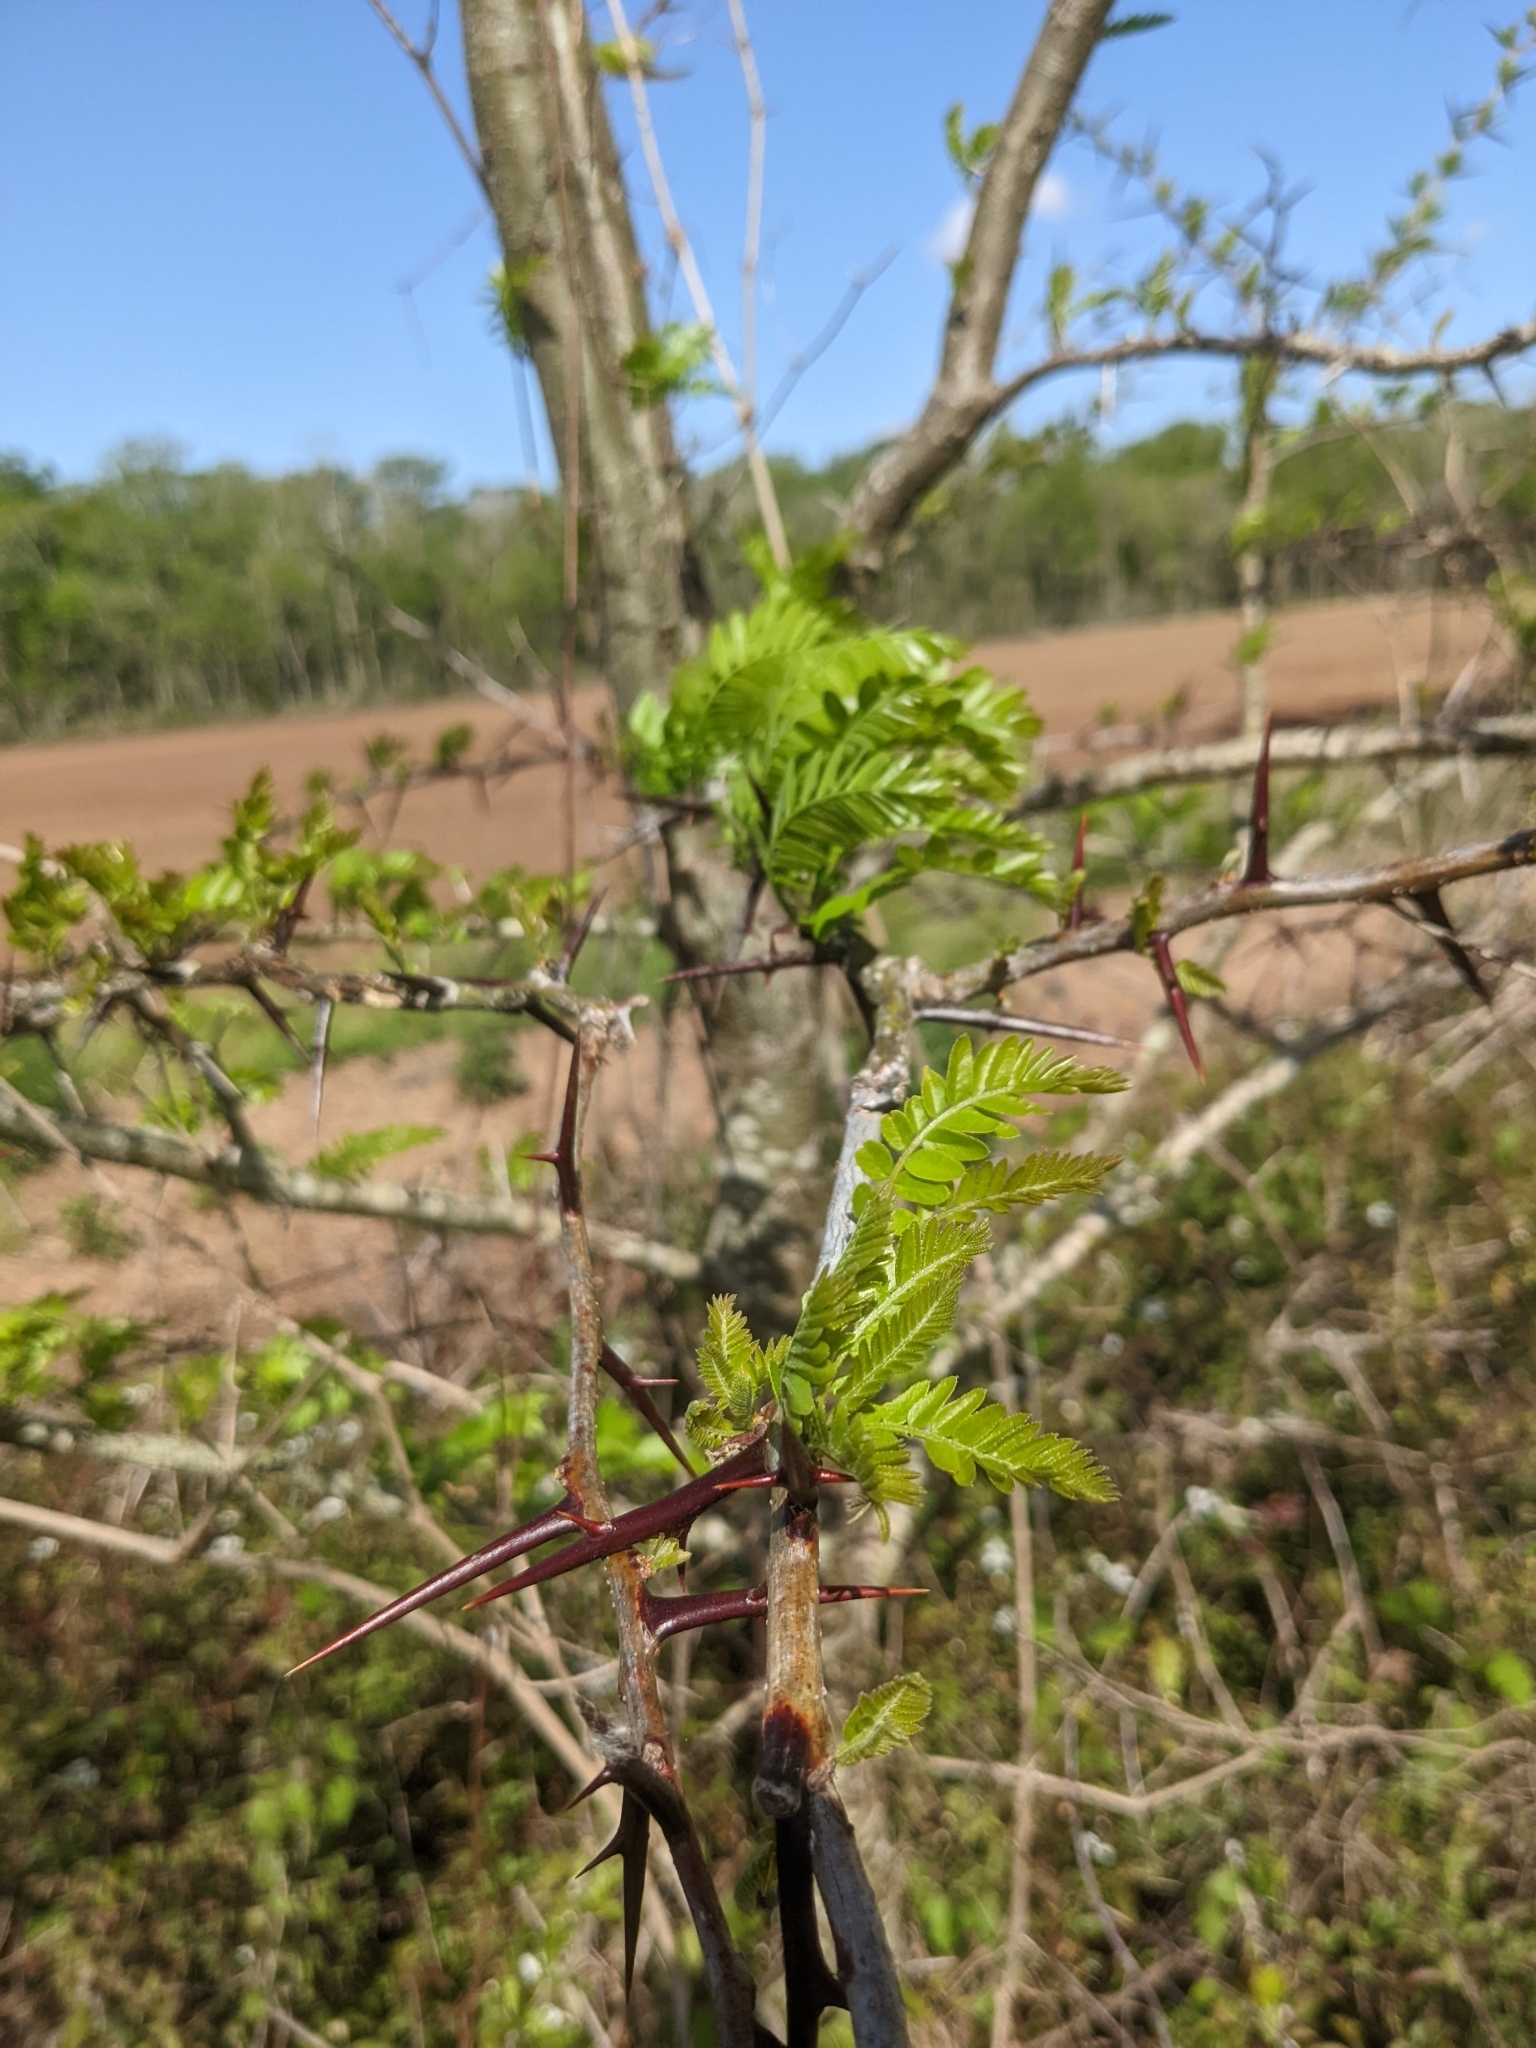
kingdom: Plantae
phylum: Tracheophyta
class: Magnoliopsida
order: Fabales
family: Fabaceae
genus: Gleditsia
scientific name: Gleditsia triacanthos
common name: Common honeylocust
